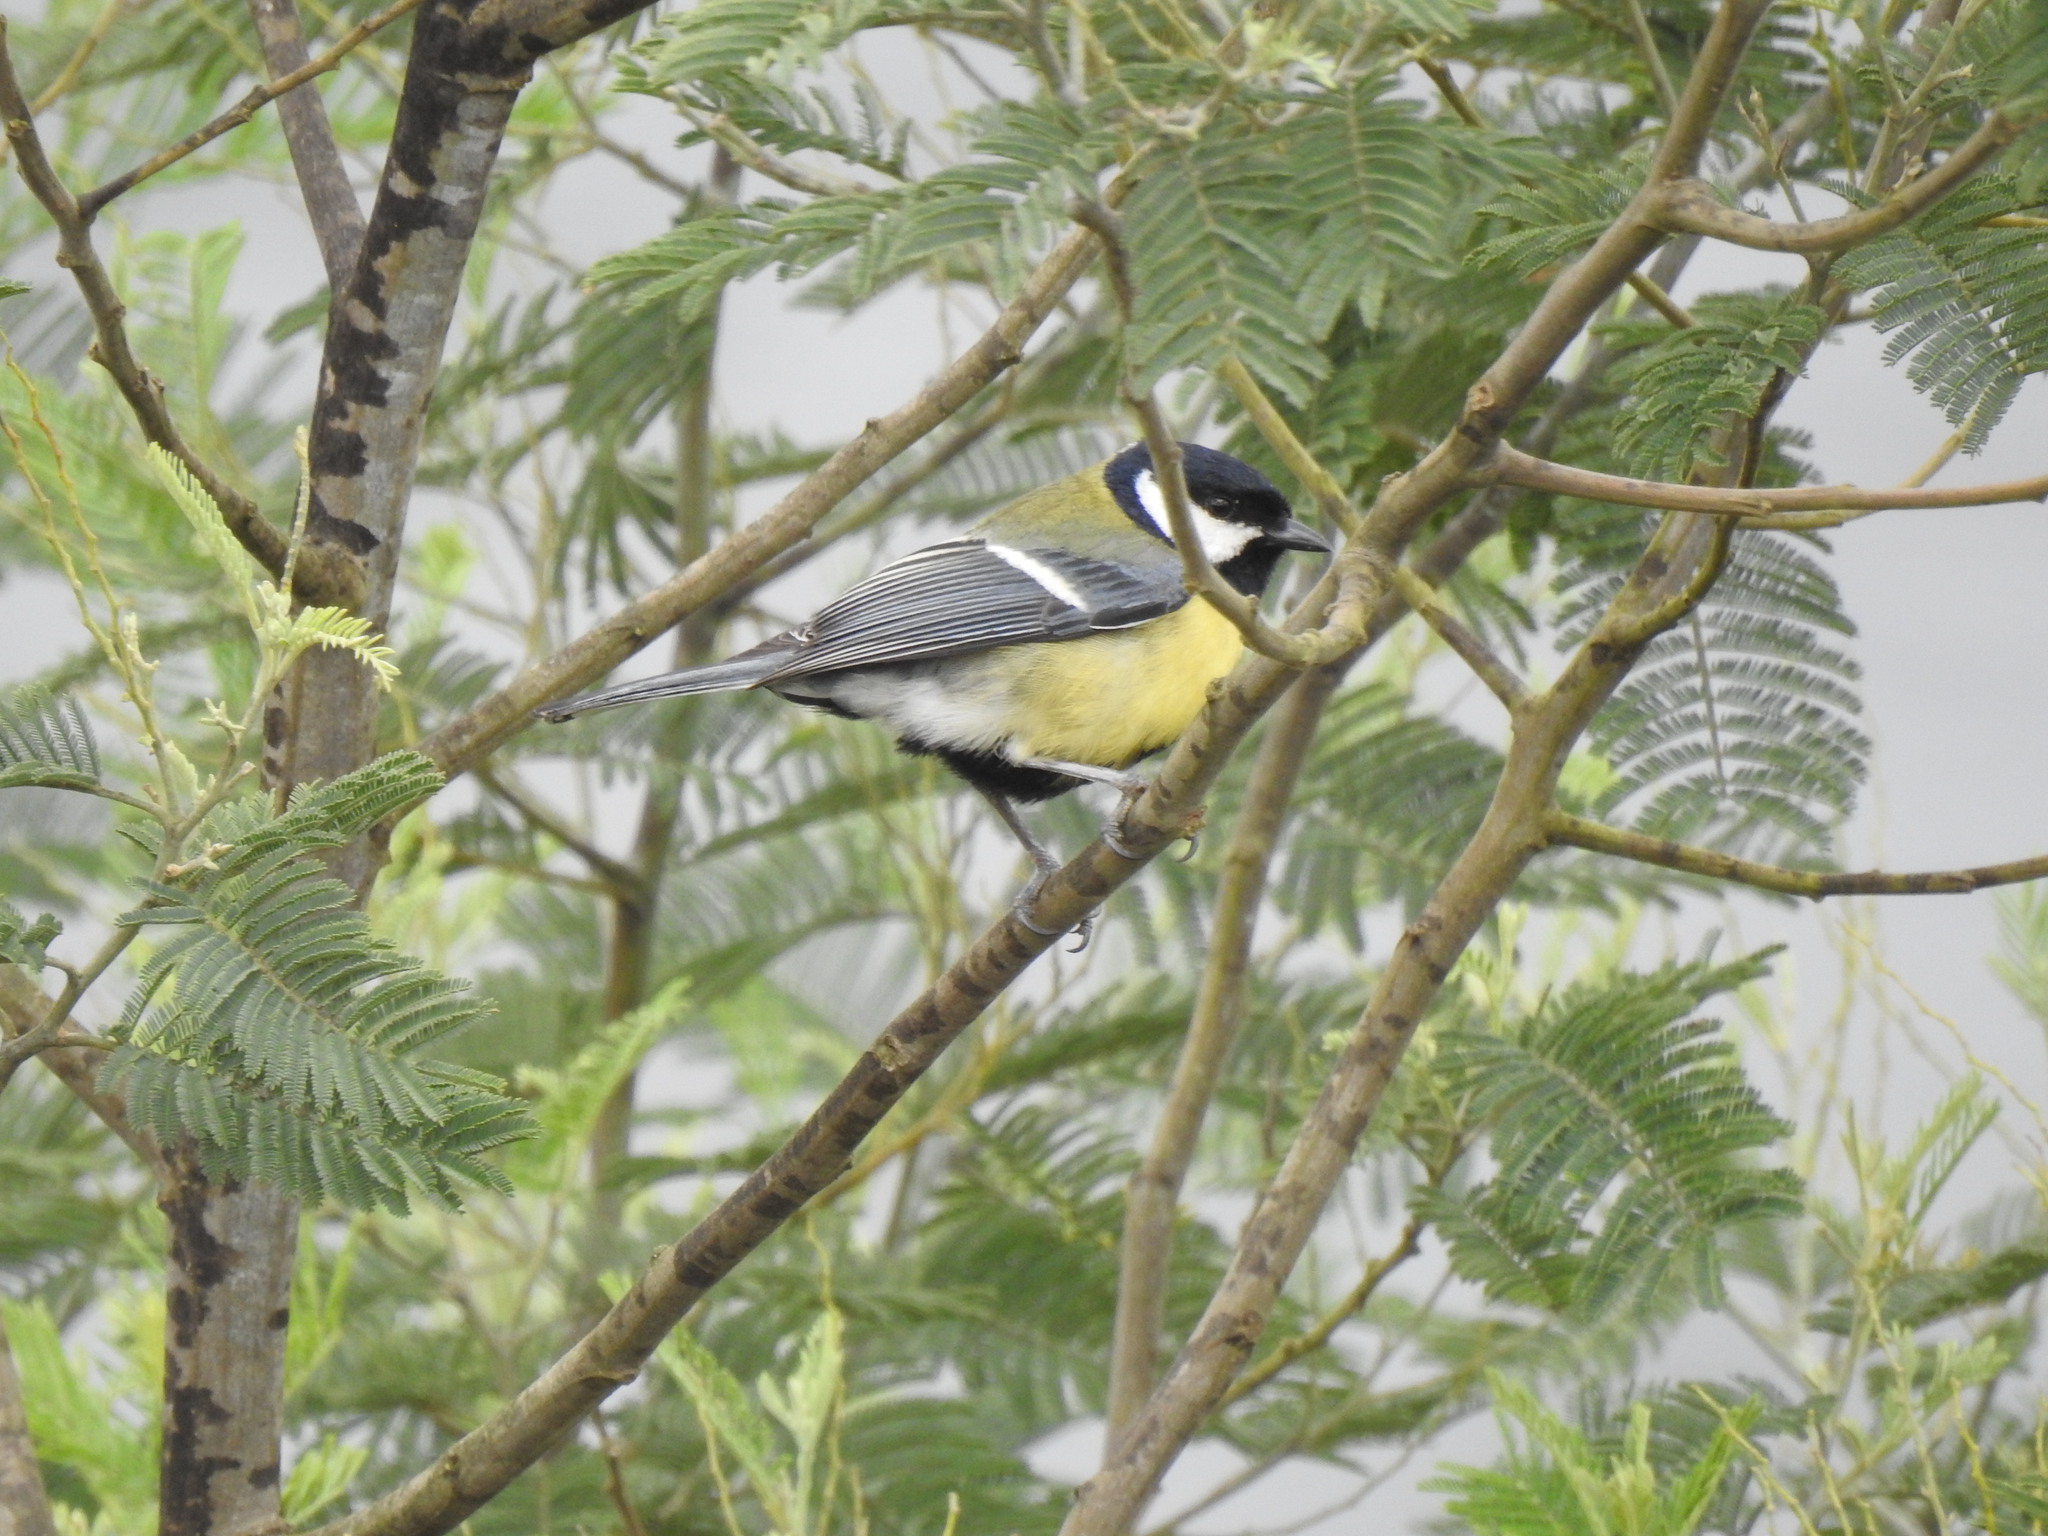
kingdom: Animalia
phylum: Chordata
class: Aves
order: Passeriformes
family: Paridae
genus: Parus
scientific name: Parus major
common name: Great tit
